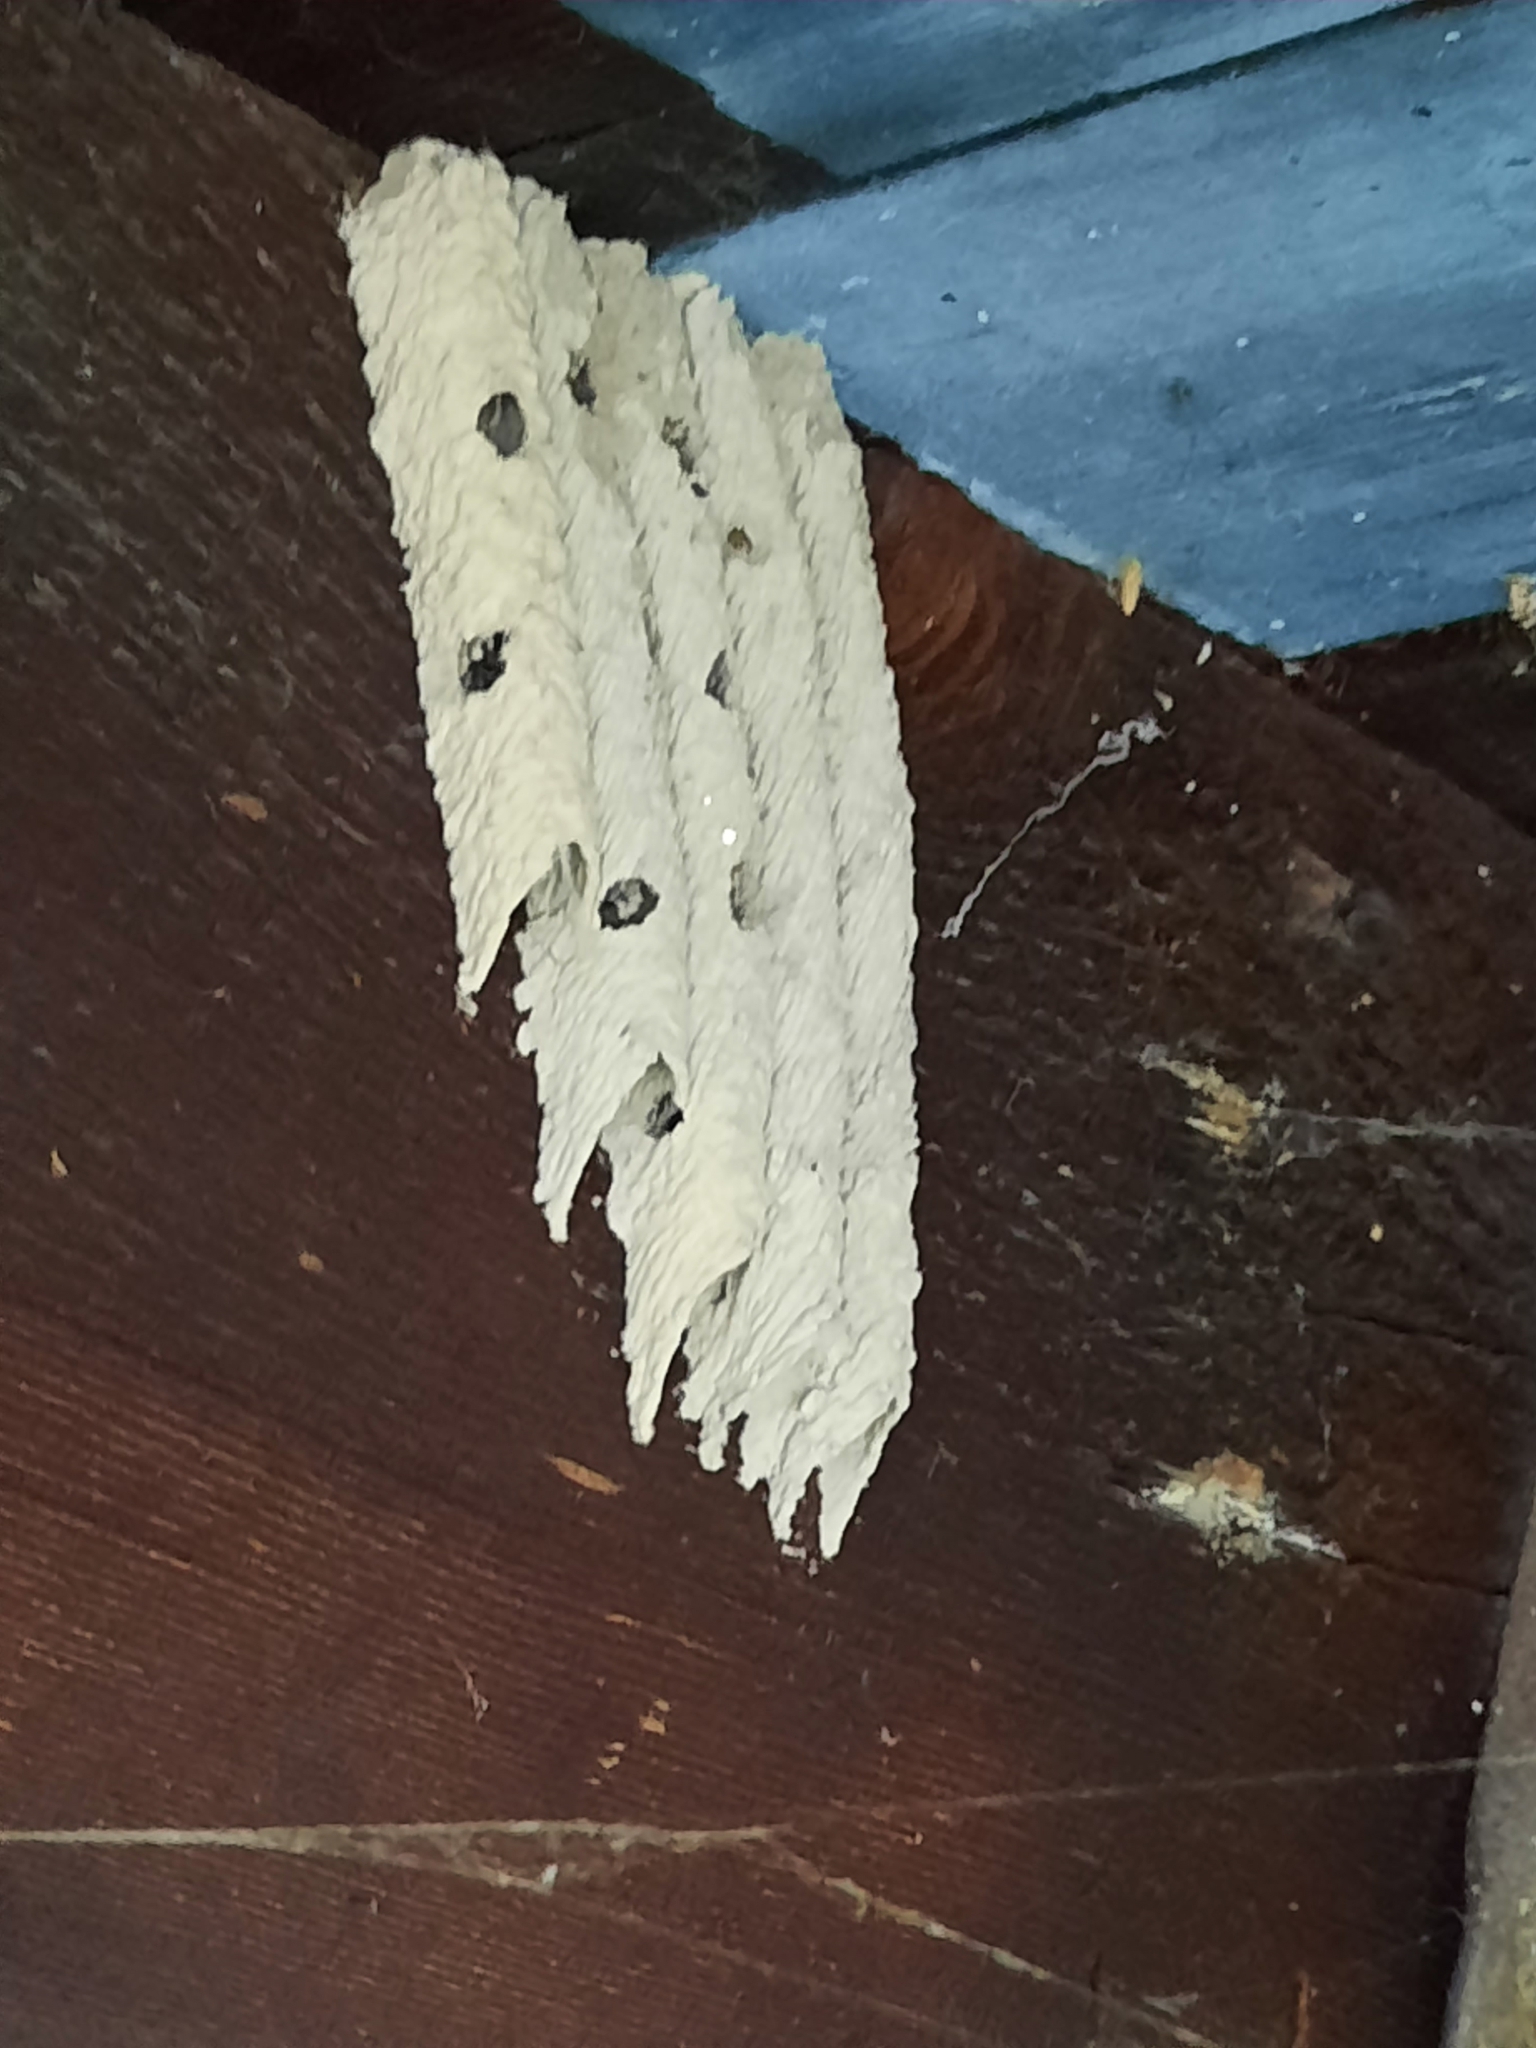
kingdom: Animalia
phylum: Arthropoda
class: Insecta
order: Hymenoptera
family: Crabronidae
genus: Trypoxylon
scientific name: Trypoxylon politum
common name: Organ-pipe mud-dauber wasp
